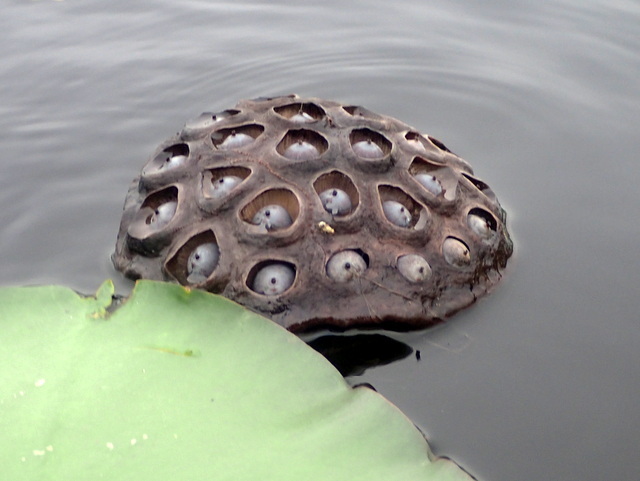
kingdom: Plantae
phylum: Tracheophyta
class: Magnoliopsida
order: Proteales
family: Nelumbonaceae
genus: Nelumbo
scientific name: Nelumbo lutea
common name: American lotus
